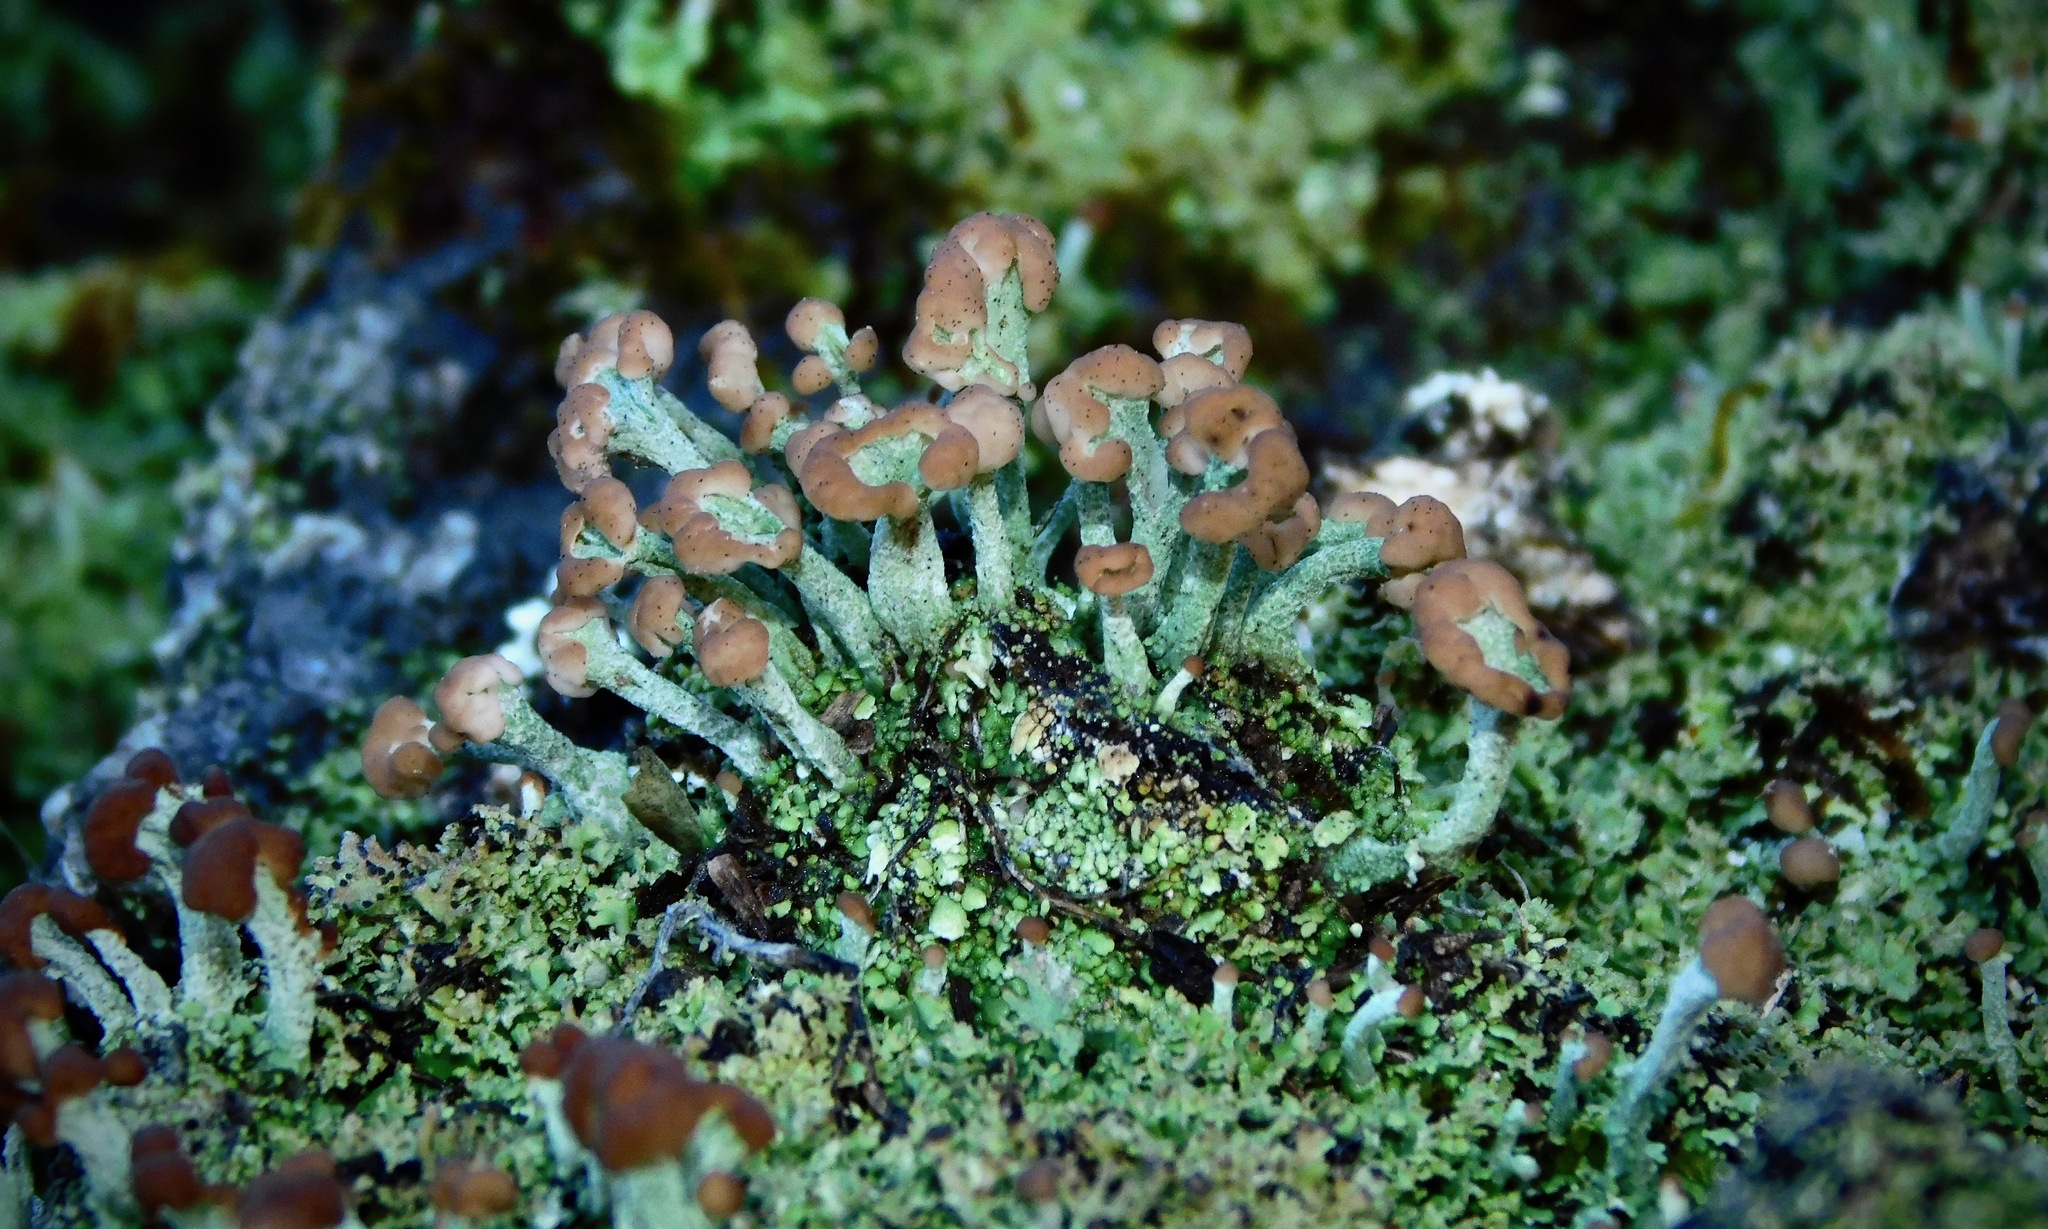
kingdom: Fungi
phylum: Ascomycota
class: Lecanoromycetes
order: Lecanorales
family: Cladoniaceae
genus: Cladonia
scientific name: Cladonia peziziformis
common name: Cup lichen
